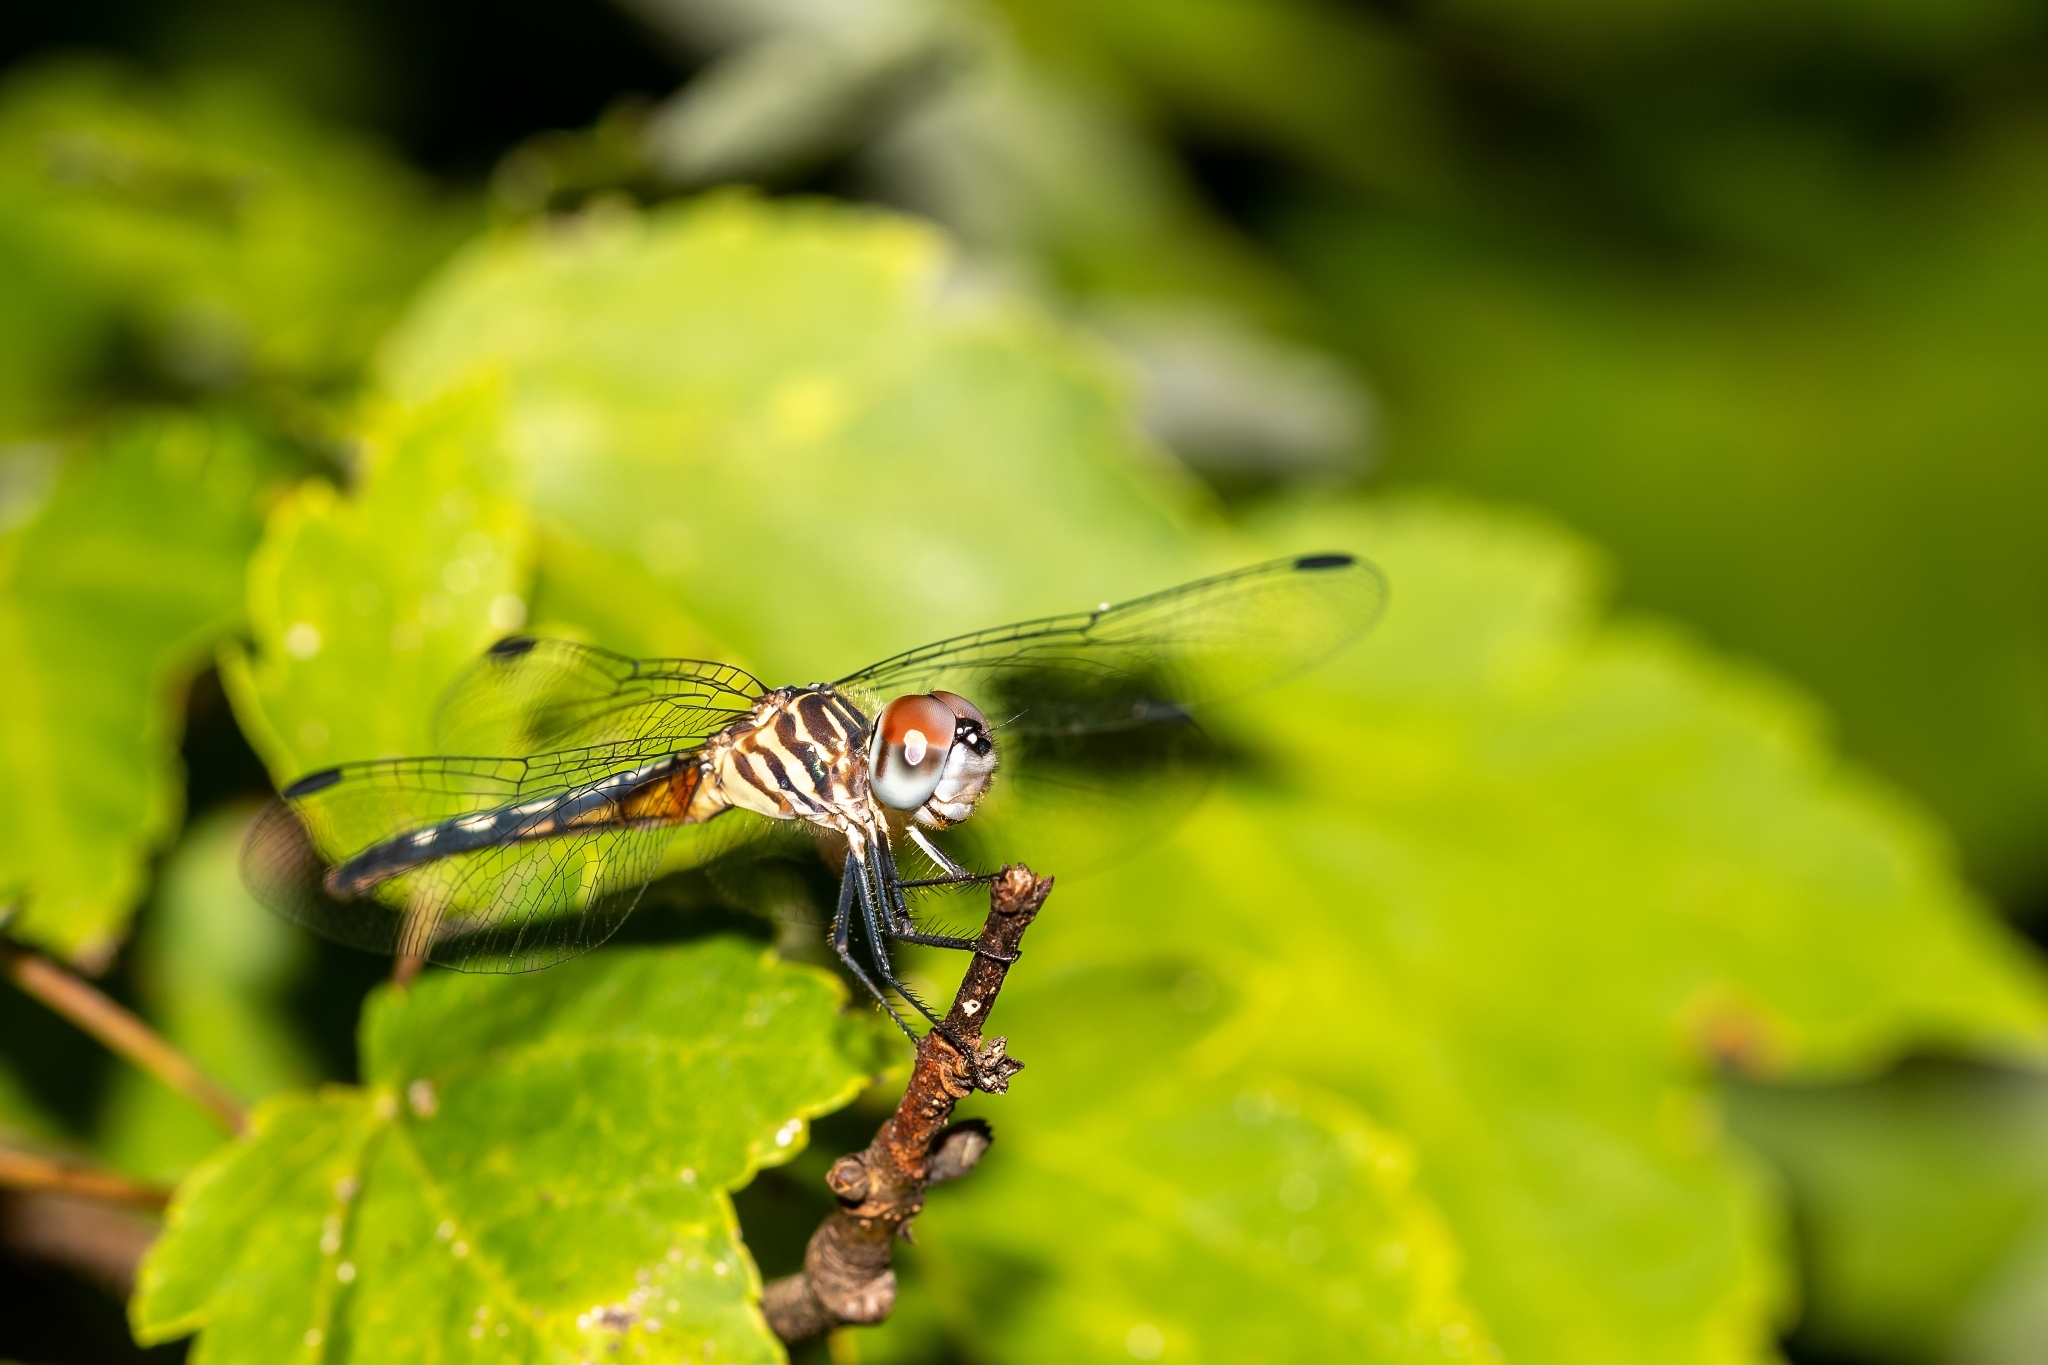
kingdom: Animalia
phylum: Arthropoda
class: Insecta
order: Odonata
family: Libellulidae
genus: Pachydiplax
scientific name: Pachydiplax longipennis
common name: Blue dasher
